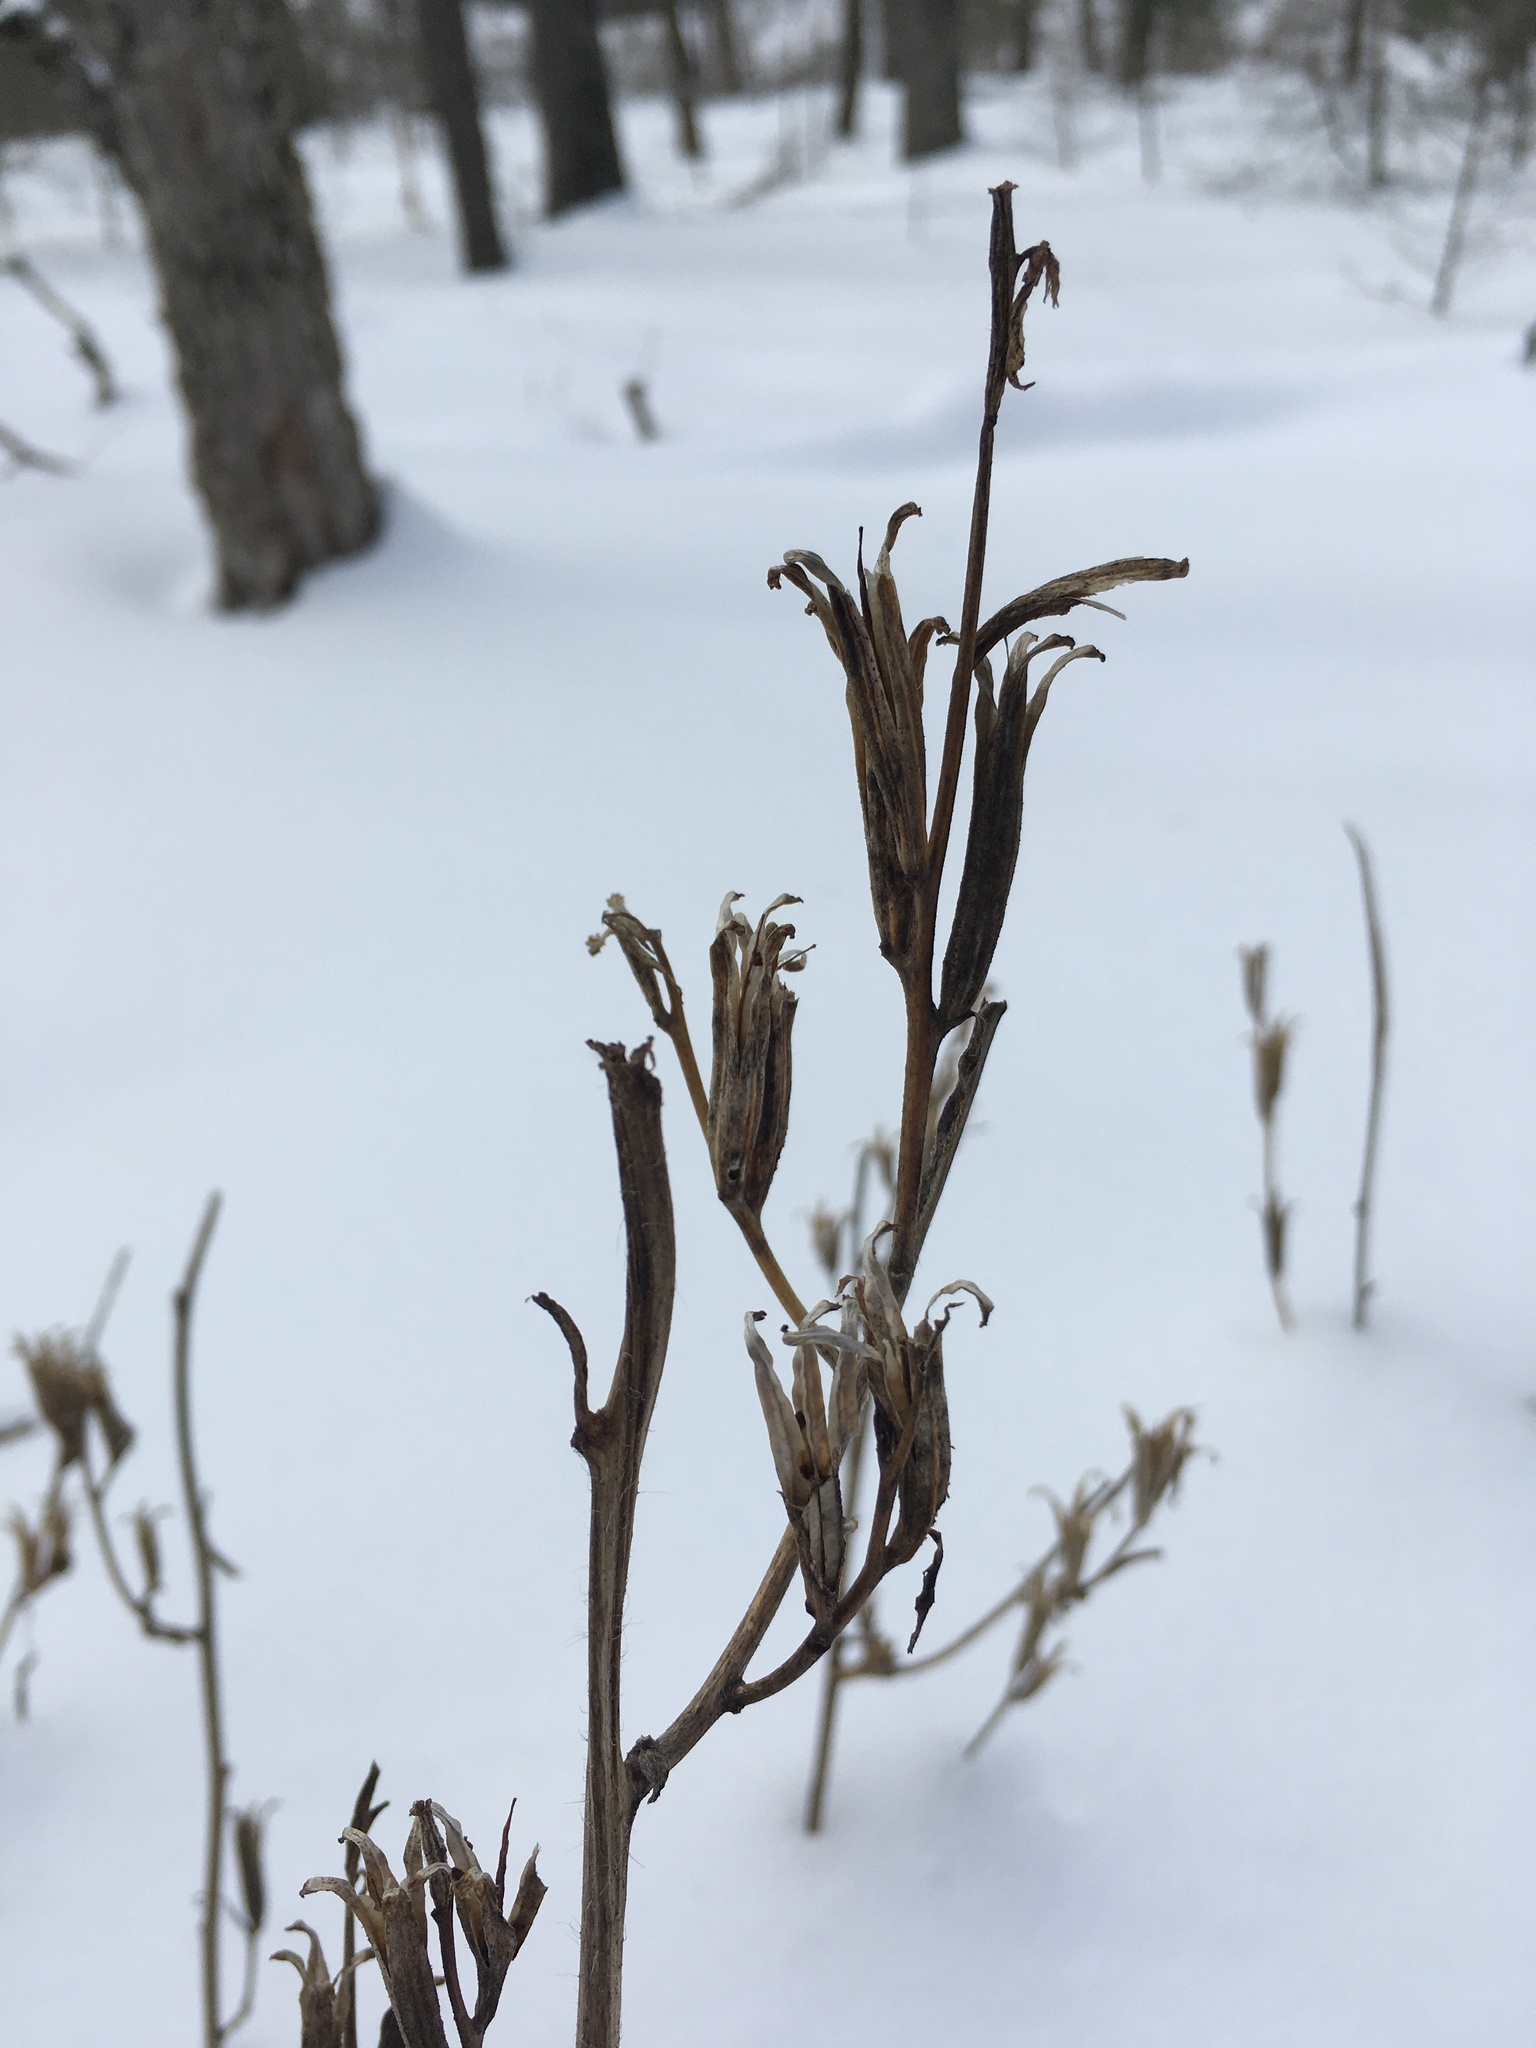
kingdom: Plantae
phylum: Tracheophyta
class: Magnoliopsida
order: Myrtales
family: Onagraceae
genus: Oenothera
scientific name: Oenothera biennis
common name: Common evening-primrose
